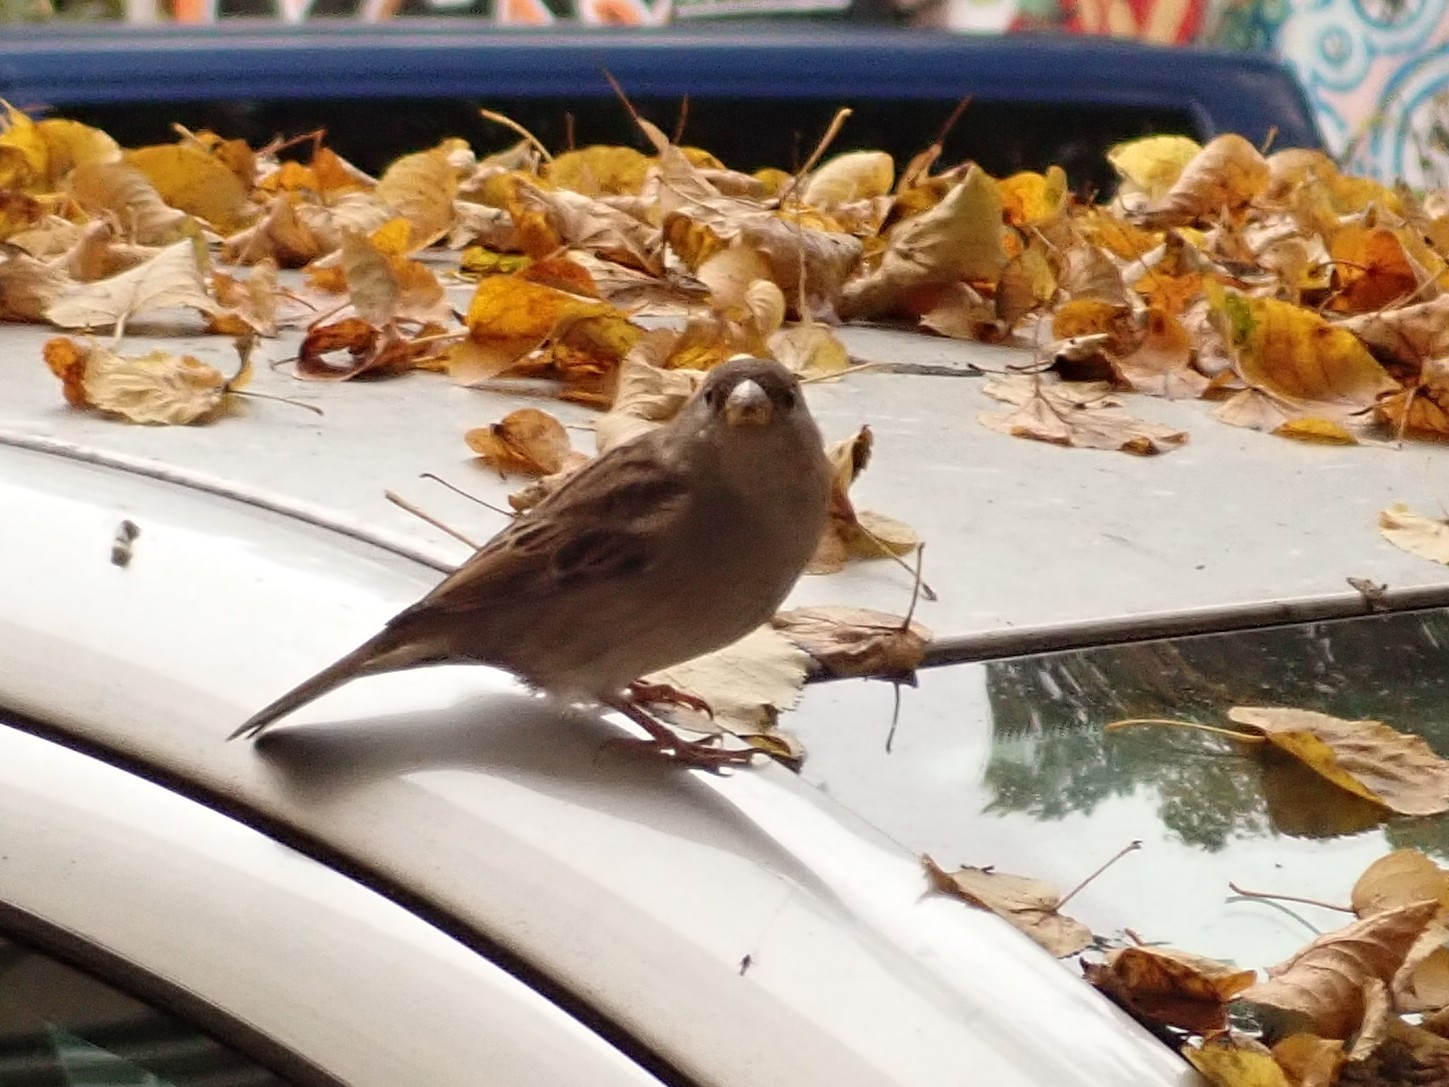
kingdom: Animalia
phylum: Chordata
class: Aves
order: Passeriformes
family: Passeridae
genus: Passer
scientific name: Passer domesticus
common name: House sparrow
